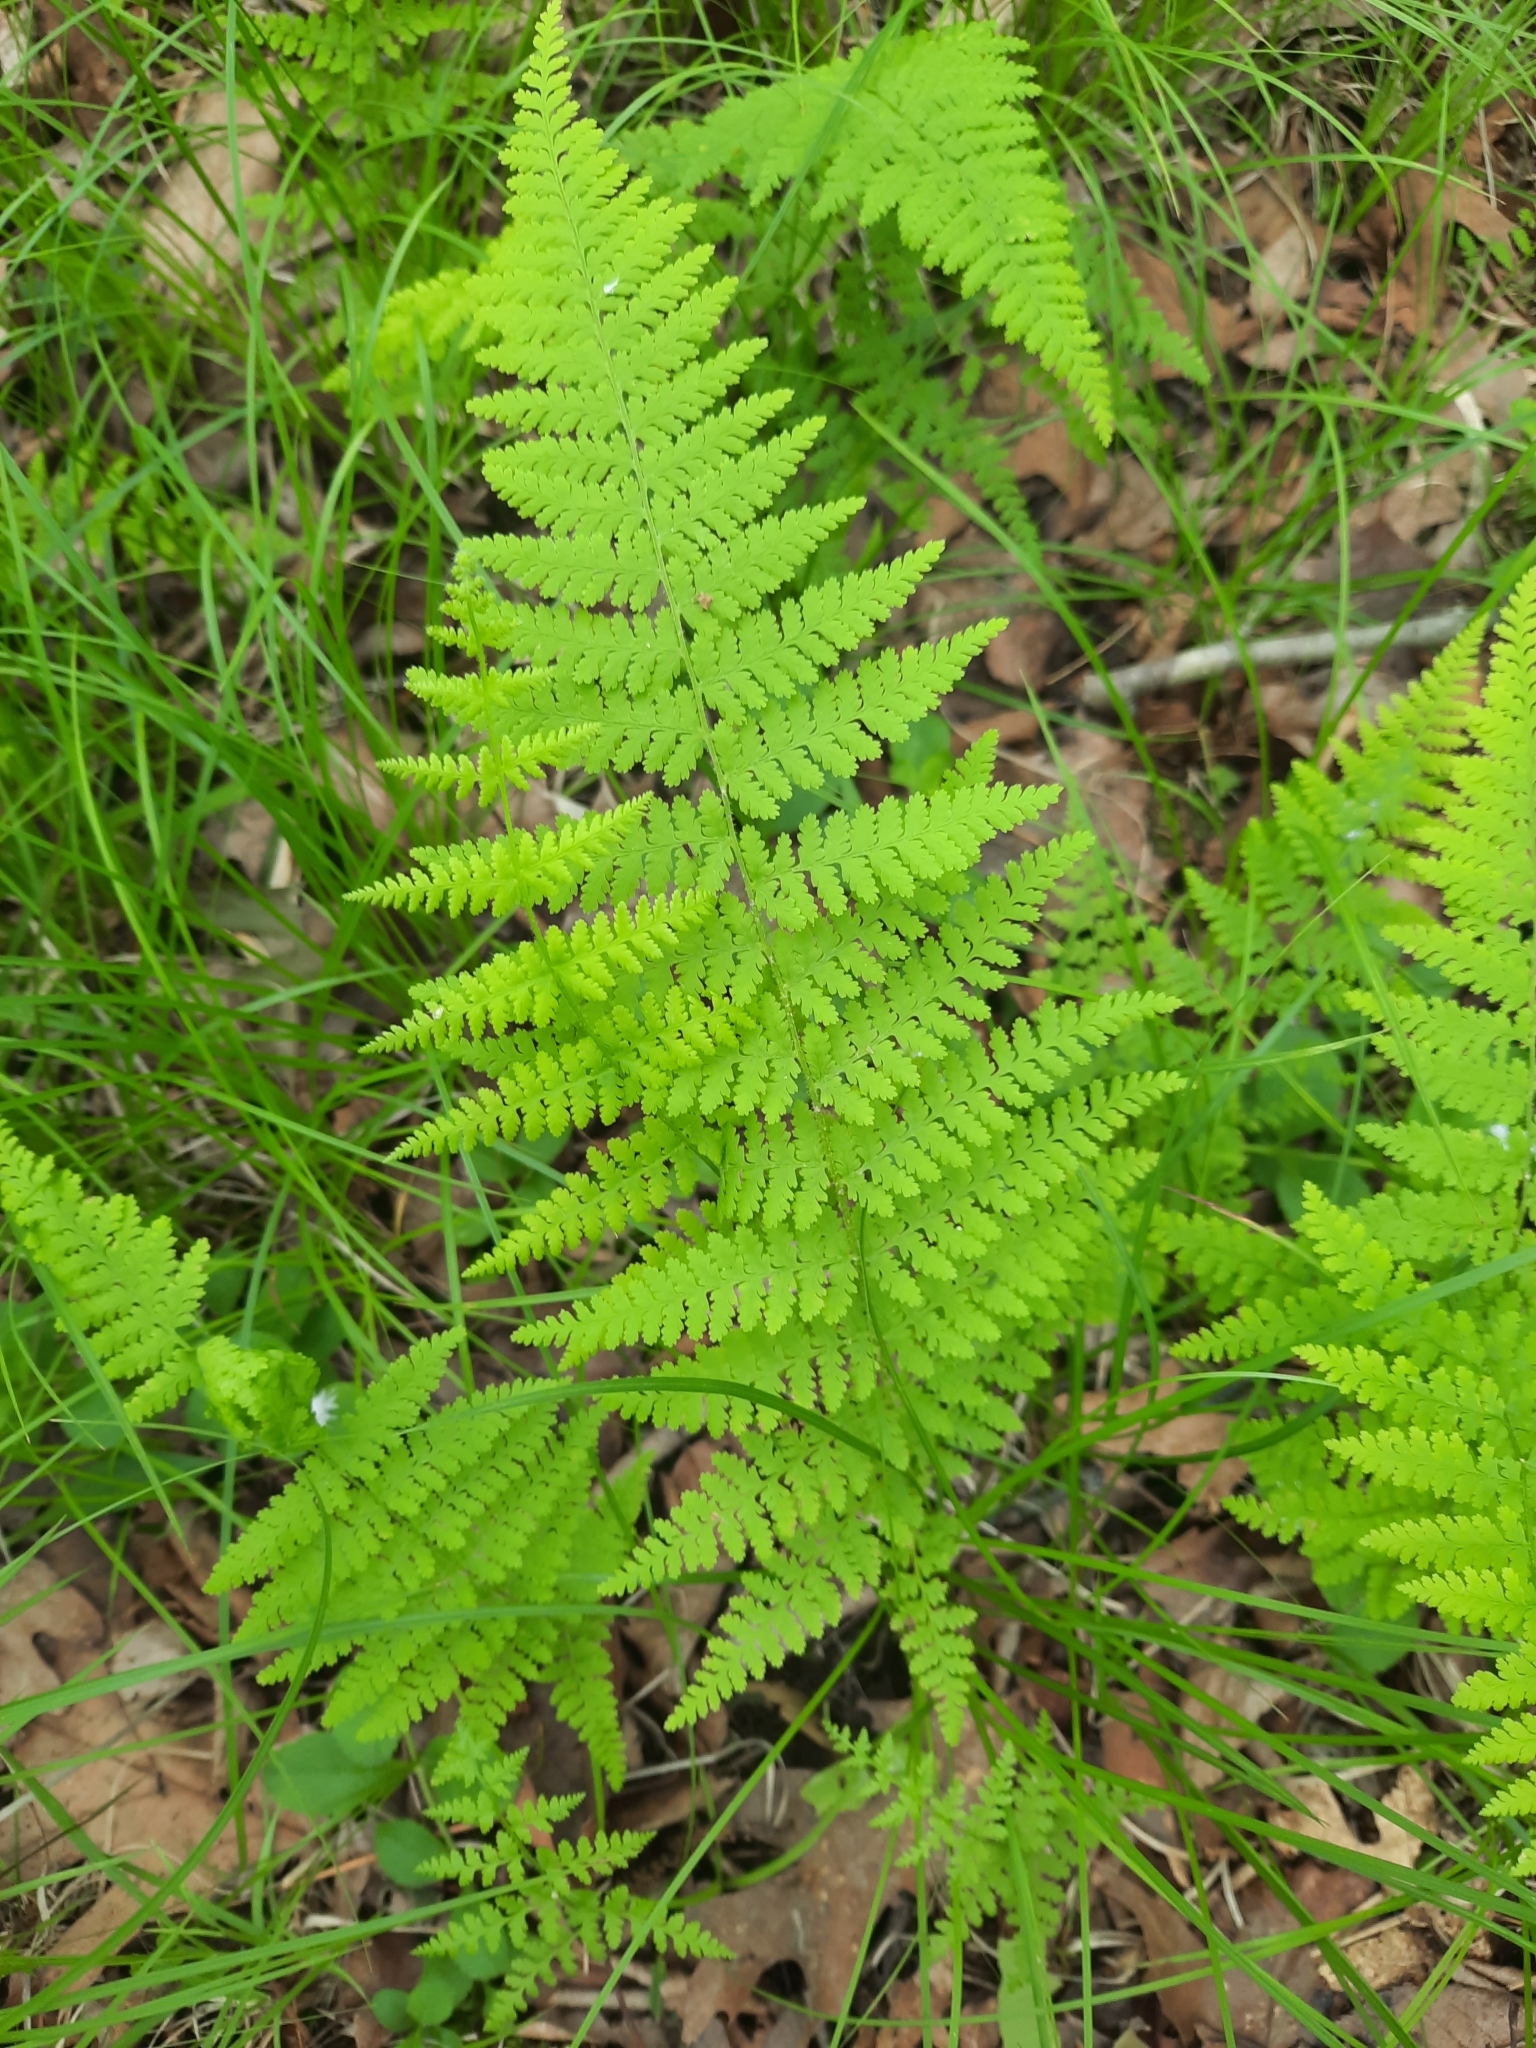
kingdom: Plantae
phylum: Tracheophyta
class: Polypodiopsida
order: Polypodiales
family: Dennstaedtiaceae
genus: Sitobolium
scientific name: Sitobolium punctilobum
